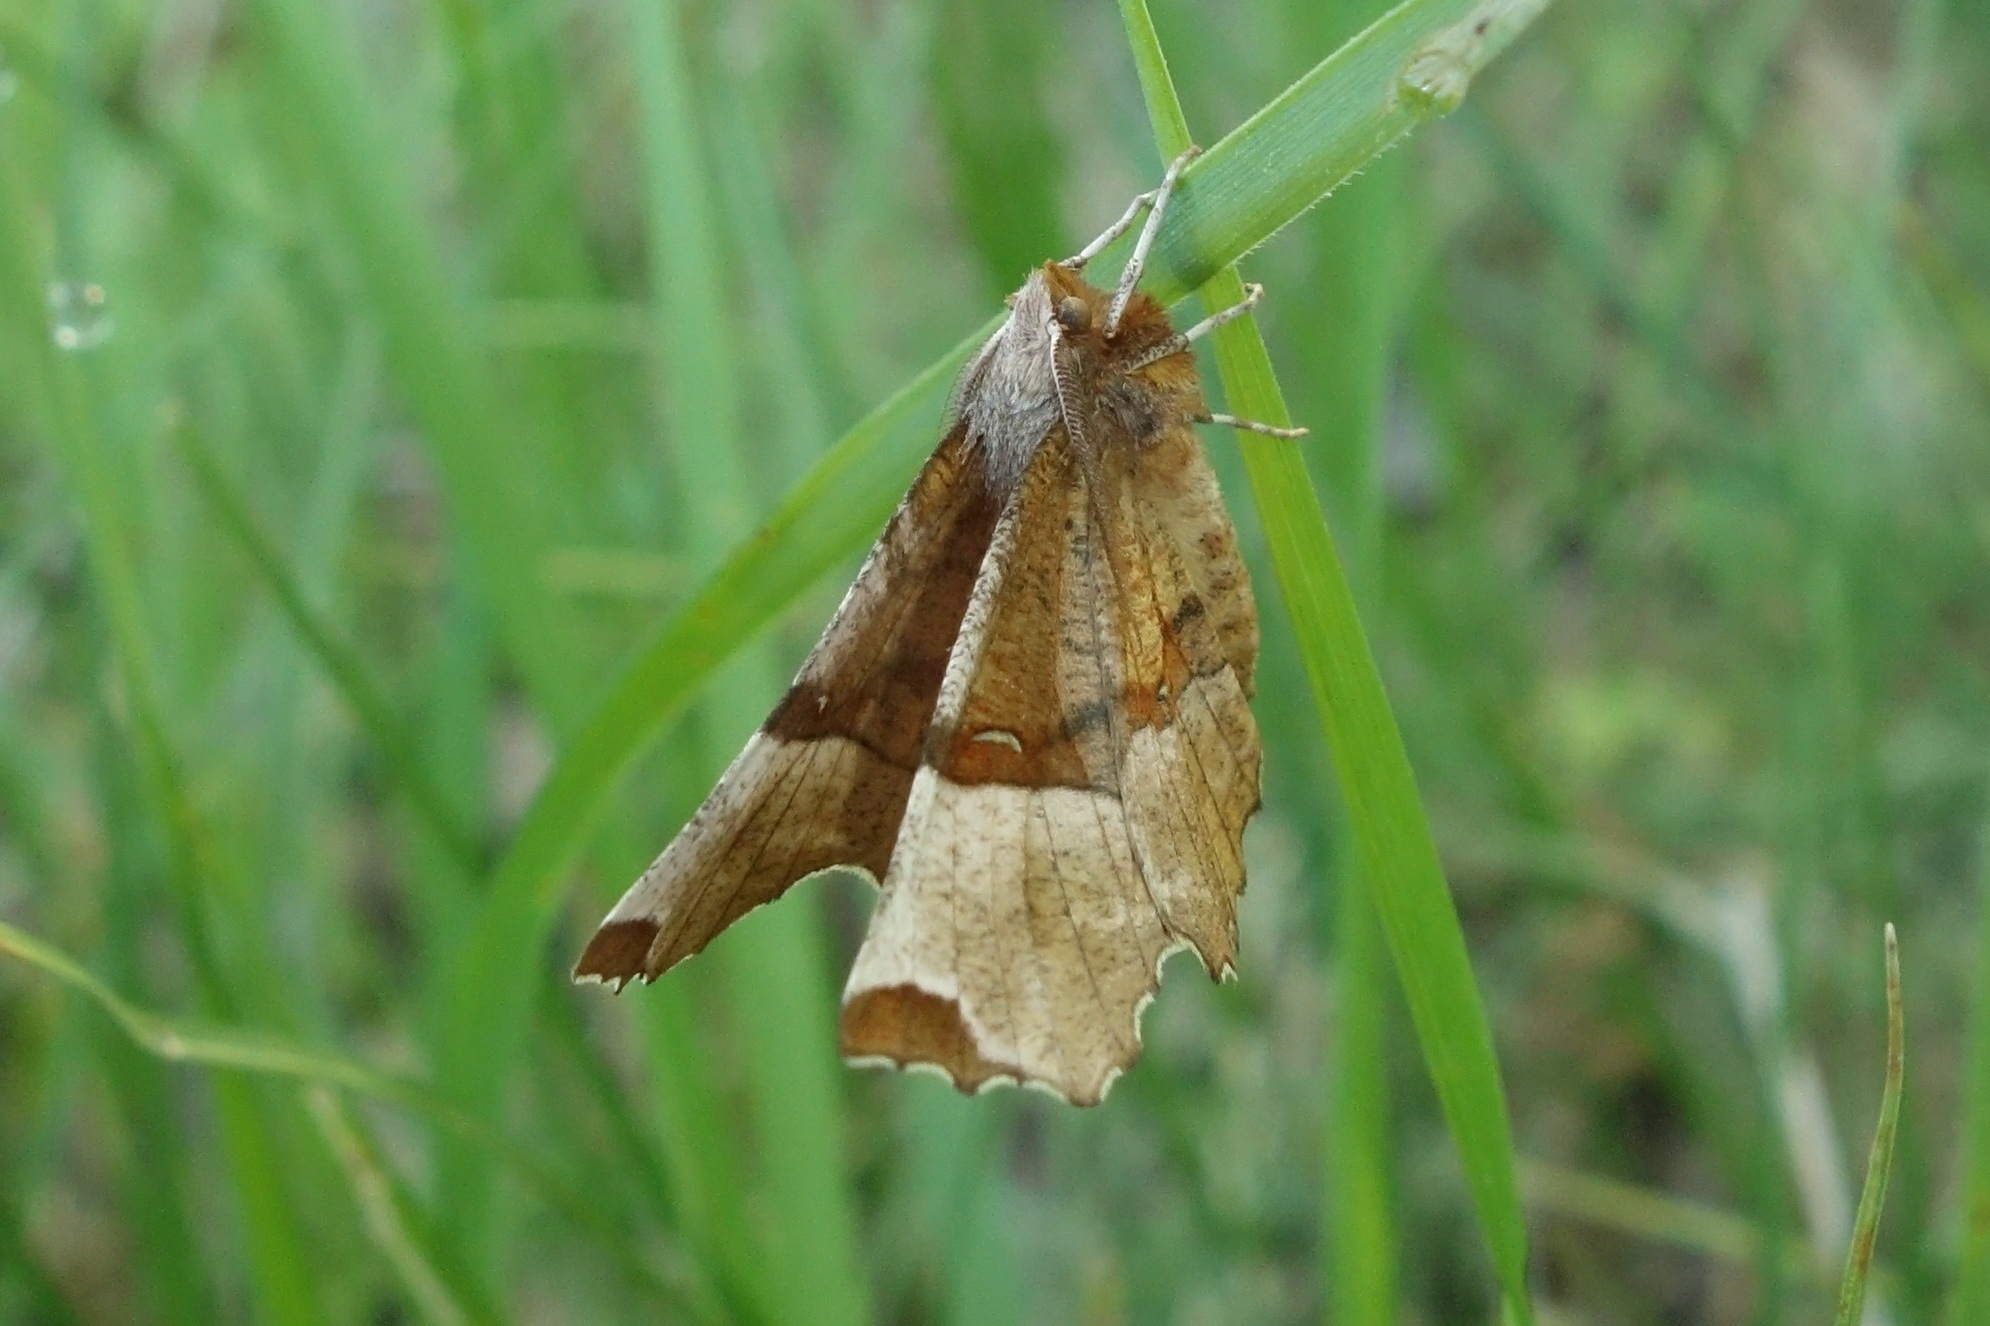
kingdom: Animalia
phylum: Arthropoda
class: Insecta
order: Lepidoptera
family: Geometridae
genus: Selenia
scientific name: Selenia tetralunaria
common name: Purple thorn
